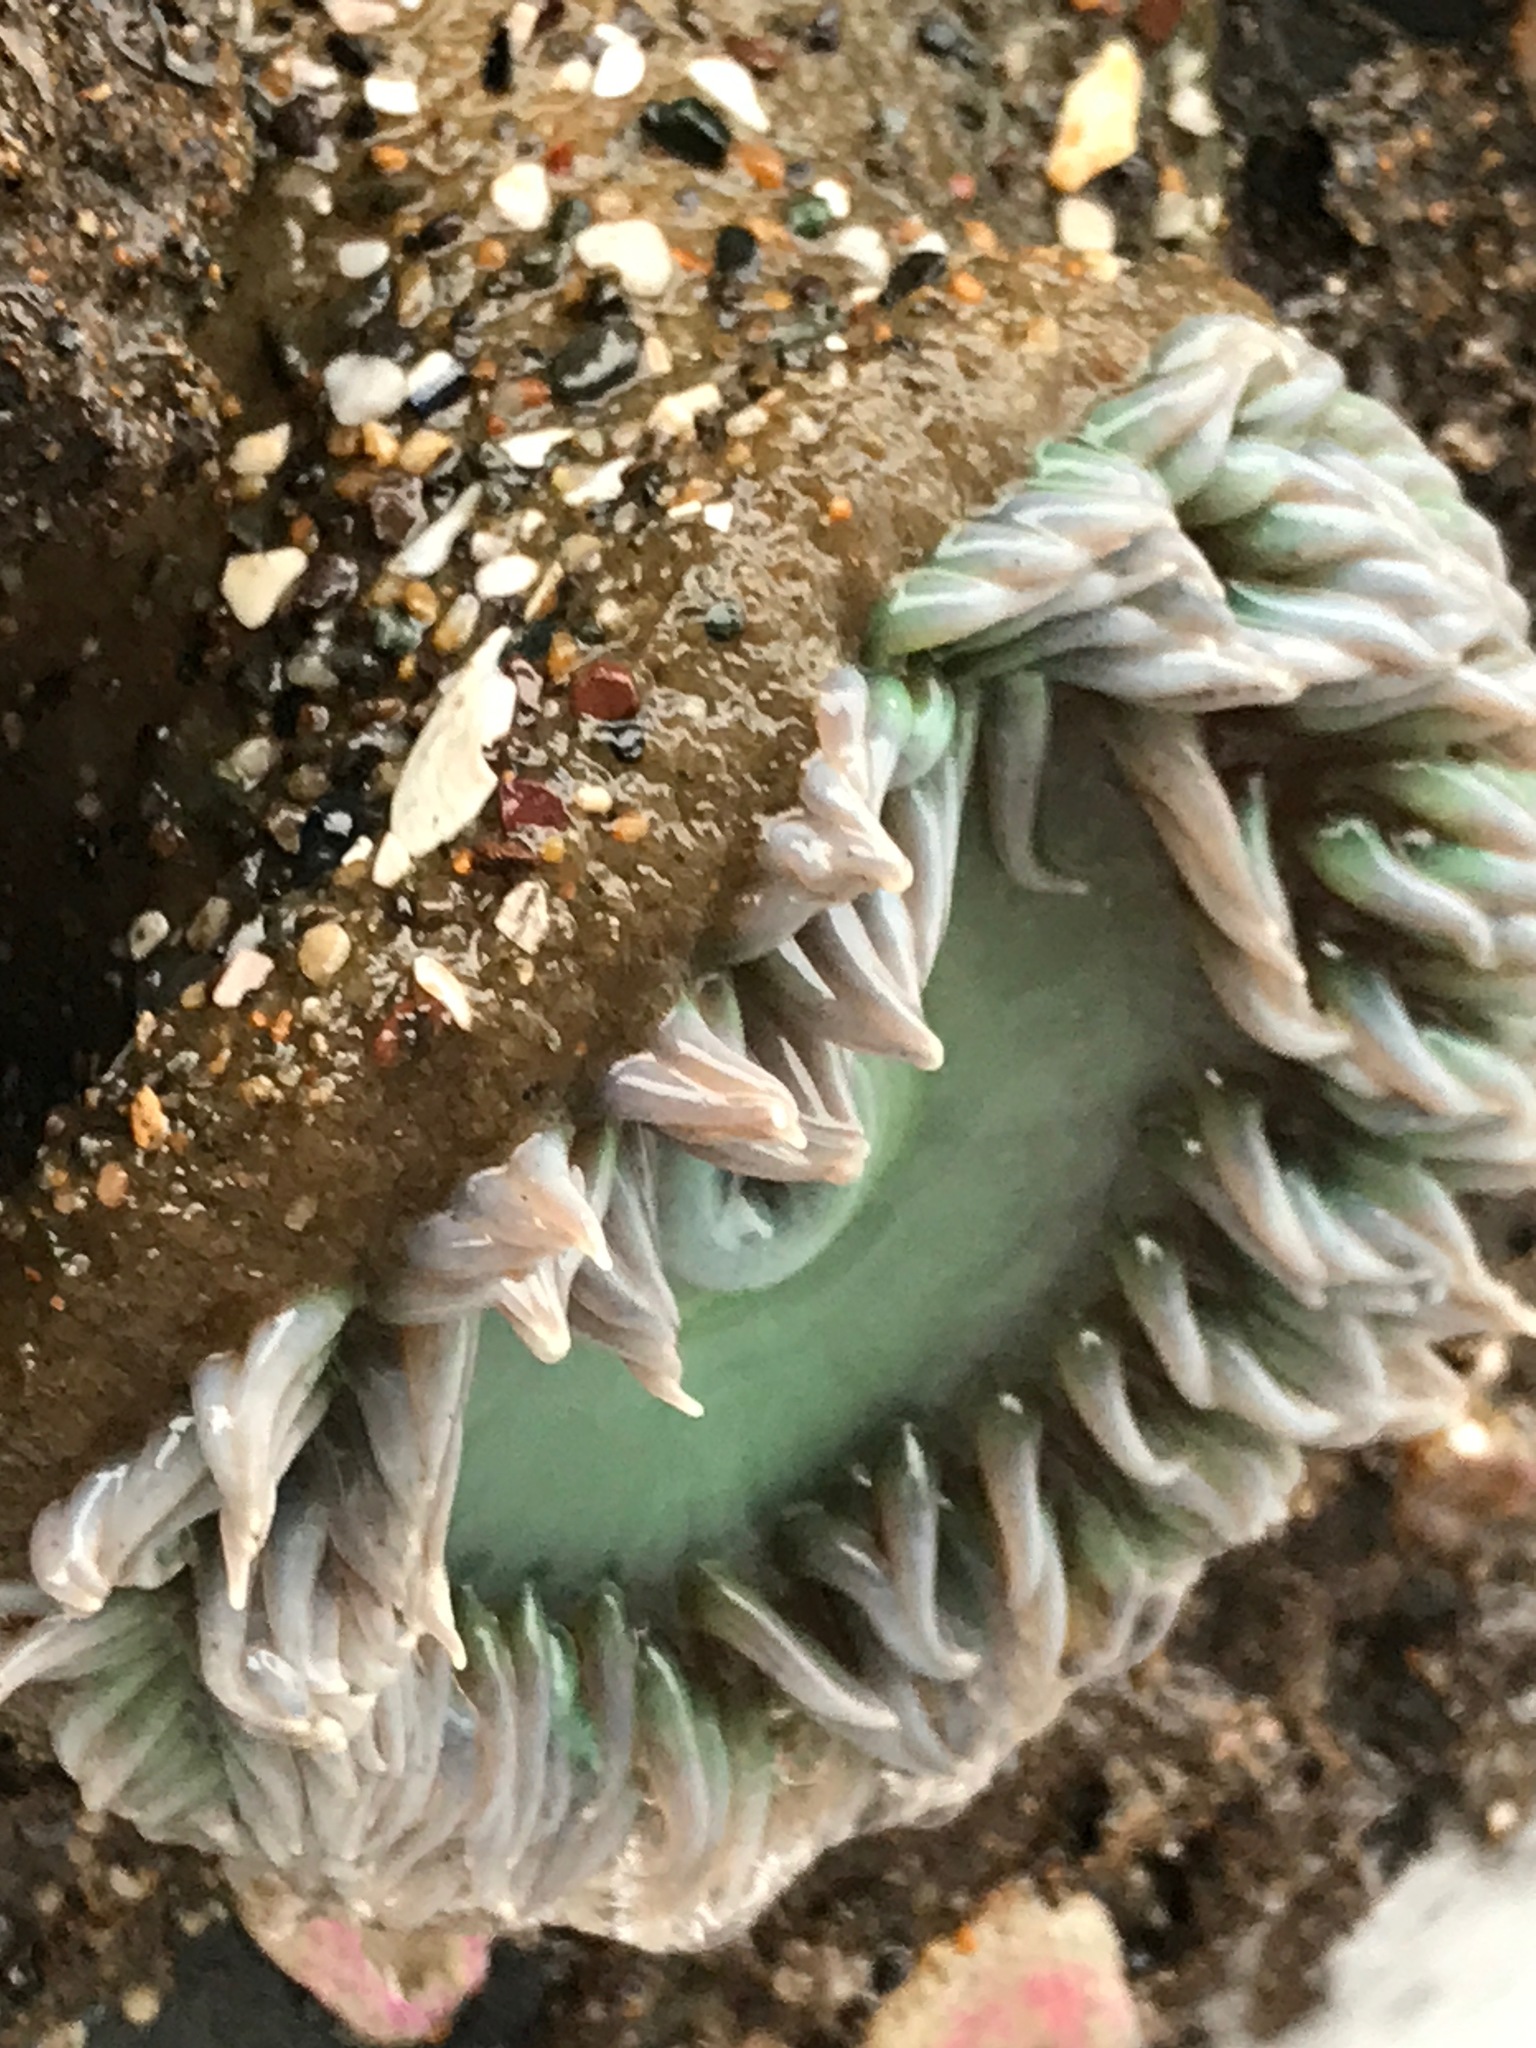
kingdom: Animalia
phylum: Cnidaria
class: Anthozoa
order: Actiniaria
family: Actiniidae
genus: Anthopleura
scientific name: Anthopleura xanthogrammica
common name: Giant green anemone
